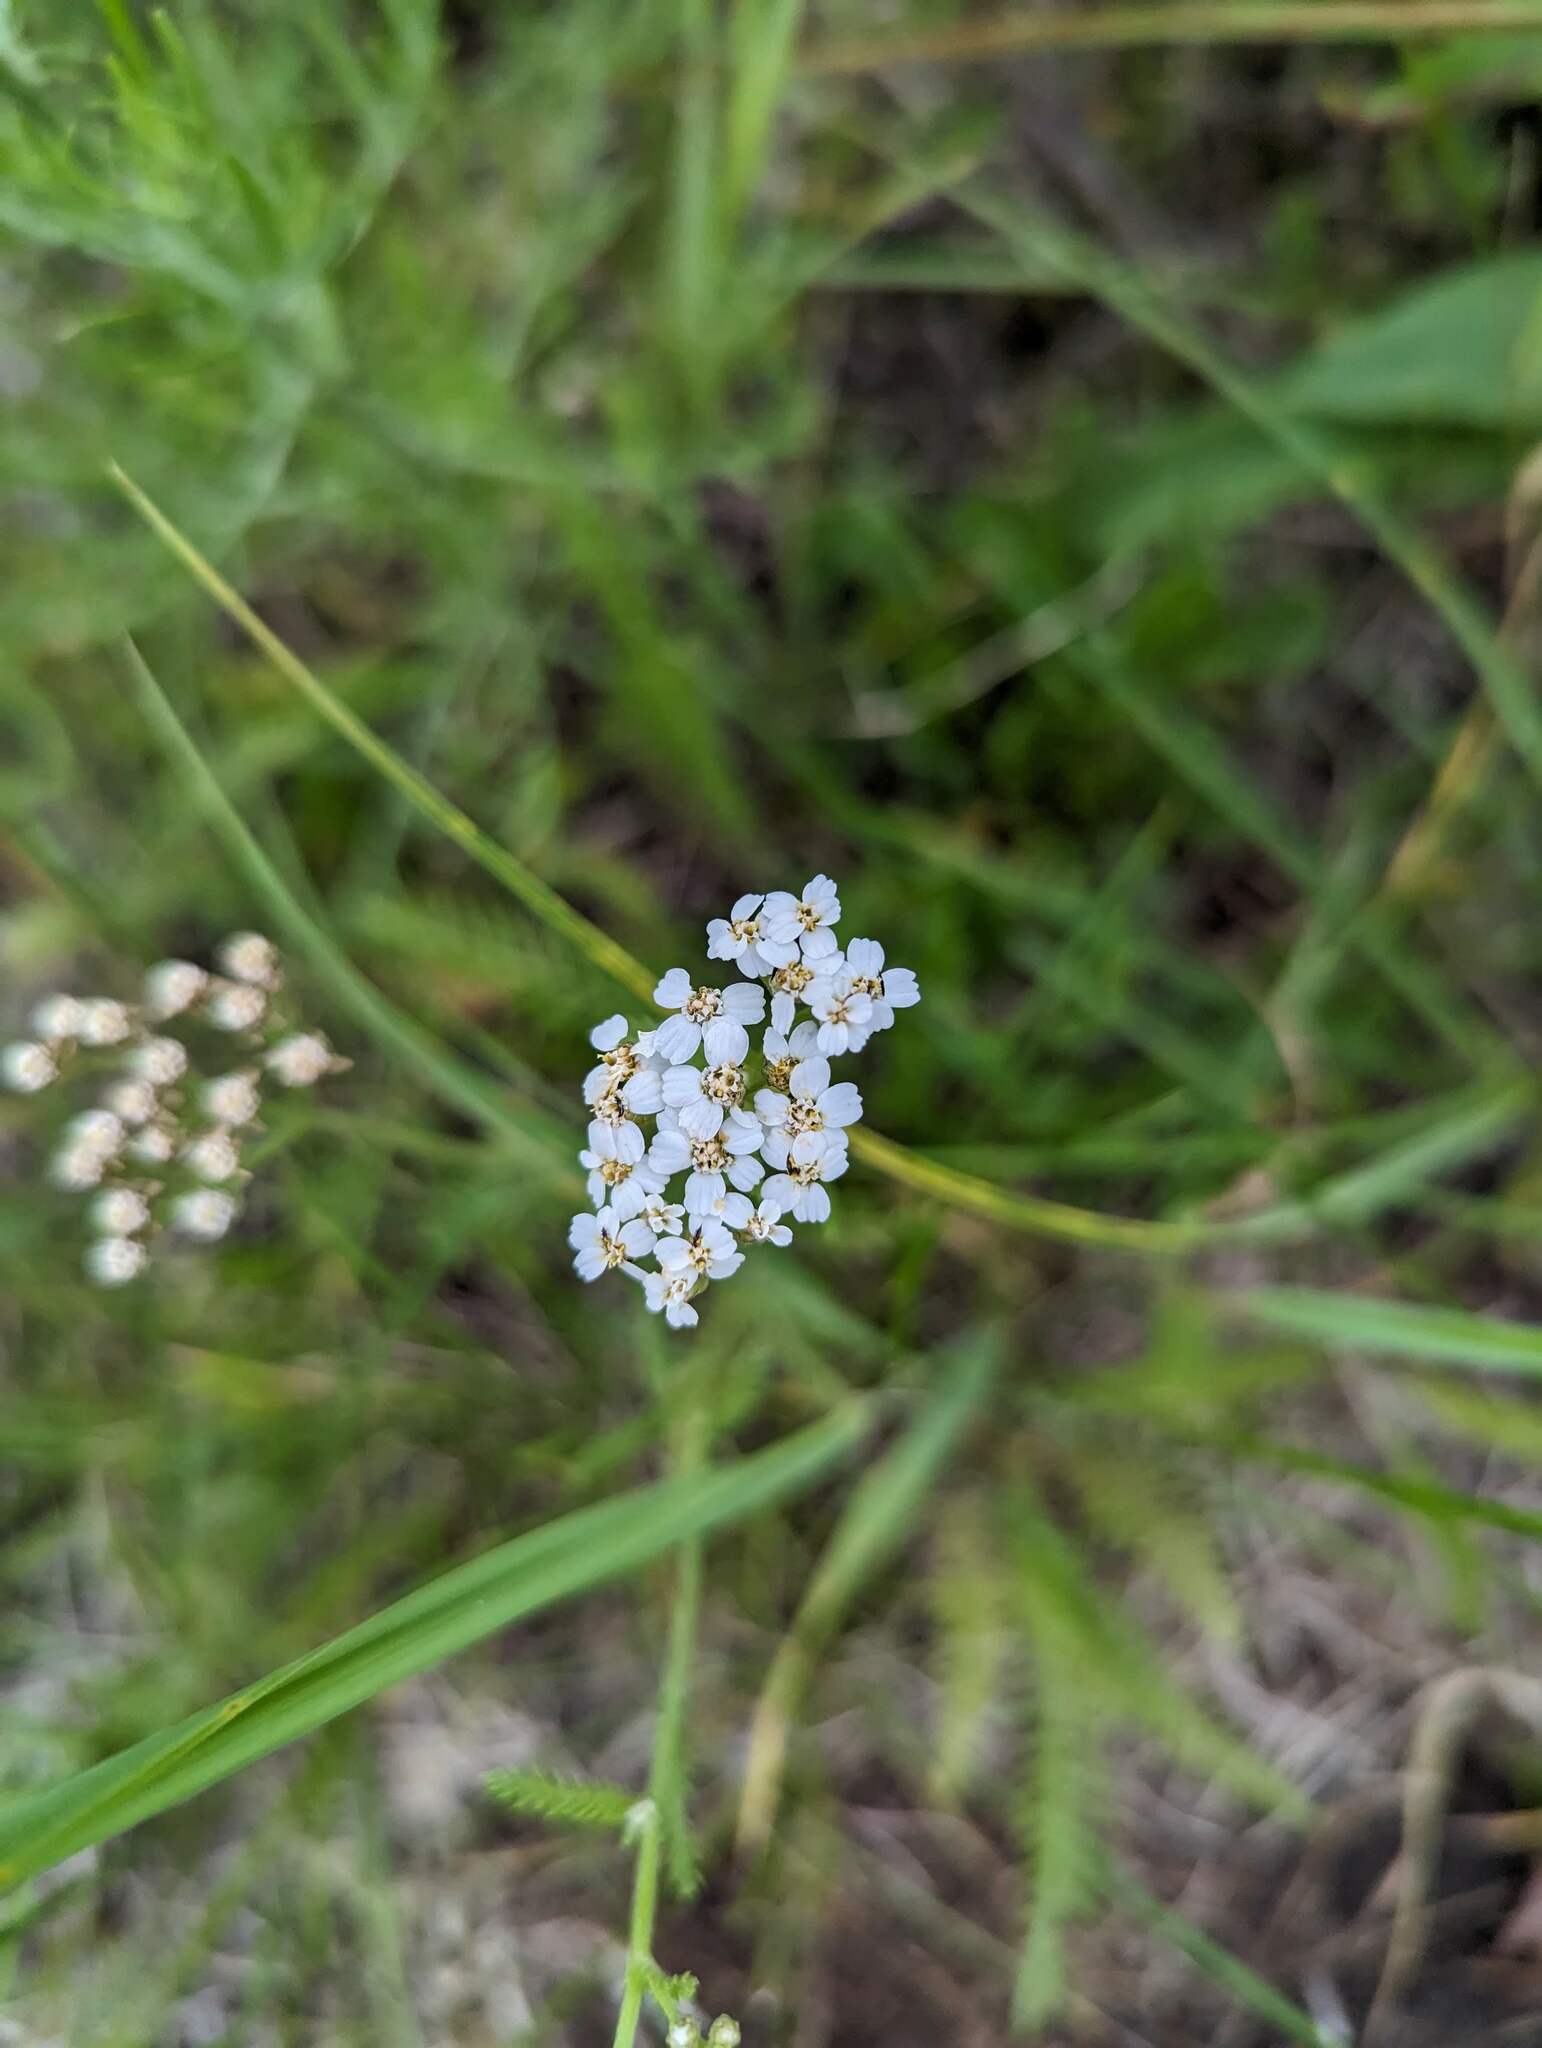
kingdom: Plantae
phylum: Tracheophyta
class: Magnoliopsida
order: Asterales
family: Asteraceae
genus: Achillea
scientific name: Achillea millefolium
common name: Yarrow
